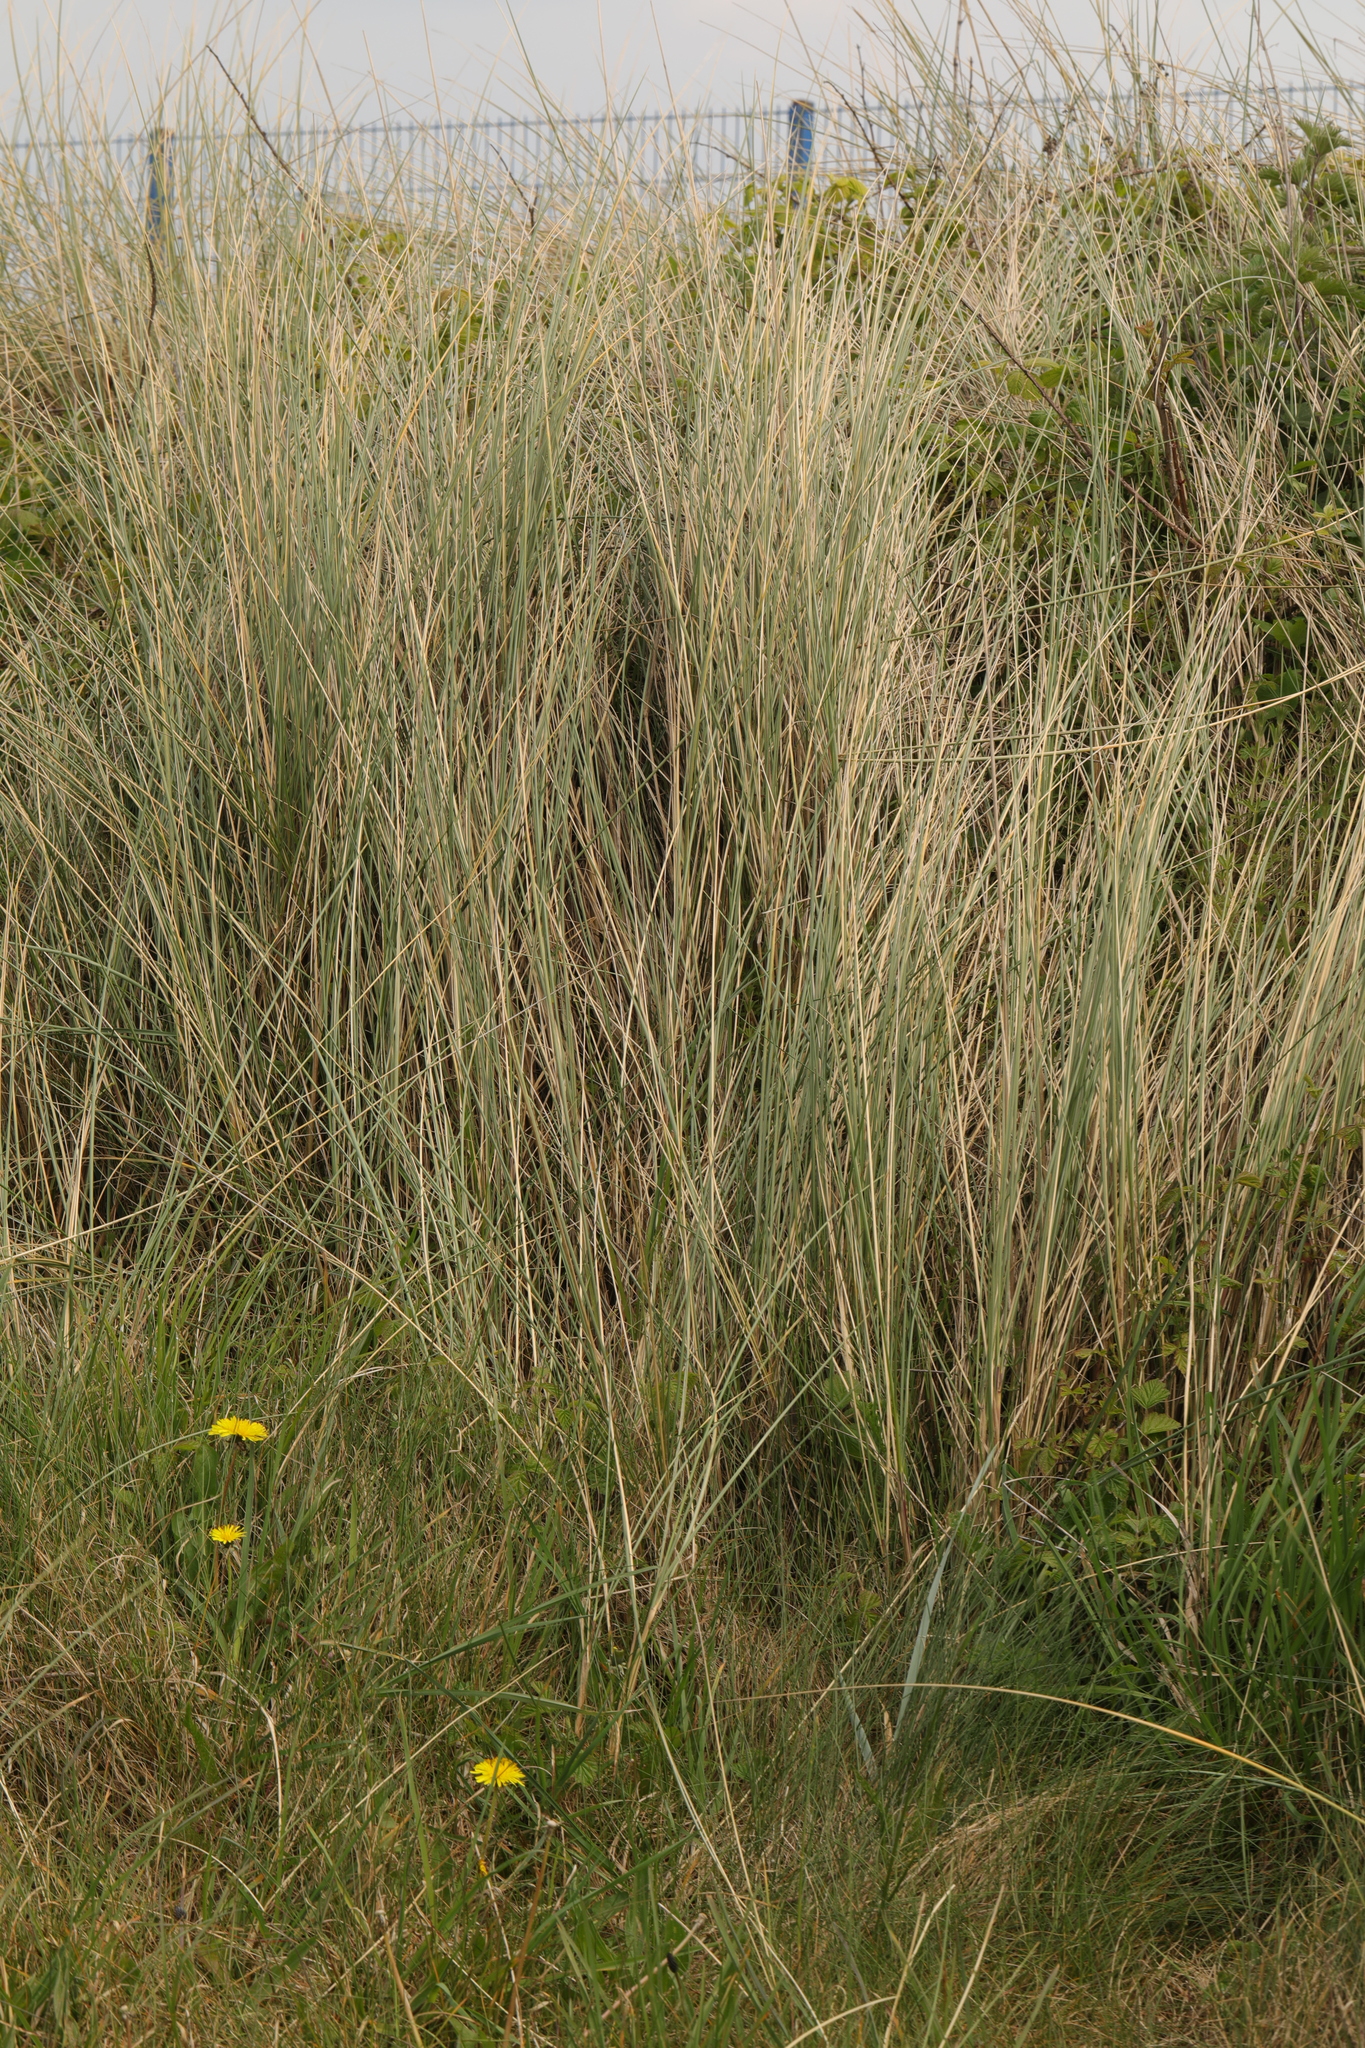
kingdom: Plantae
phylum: Tracheophyta
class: Liliopsida
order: Poales
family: Poaceae
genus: Calamagrostis
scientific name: Calamagrostis arenaria
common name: European beachgrass
